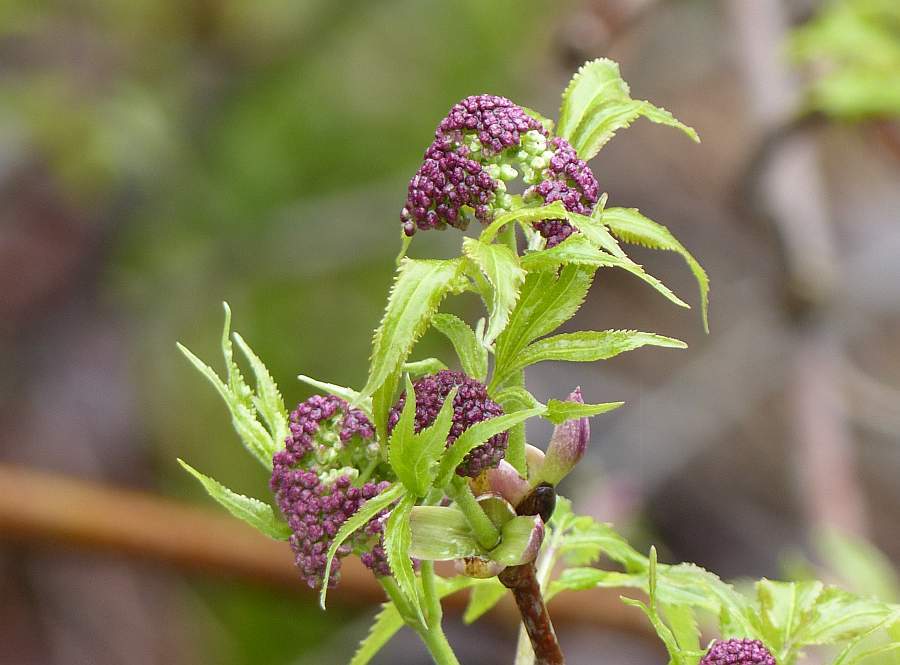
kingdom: Plantae
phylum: Tracheophyta
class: Magnoliopsida
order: Dipsacales
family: Viburnaceae
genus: Sambucus
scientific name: Sambucus racemosa
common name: Red-berried elder
